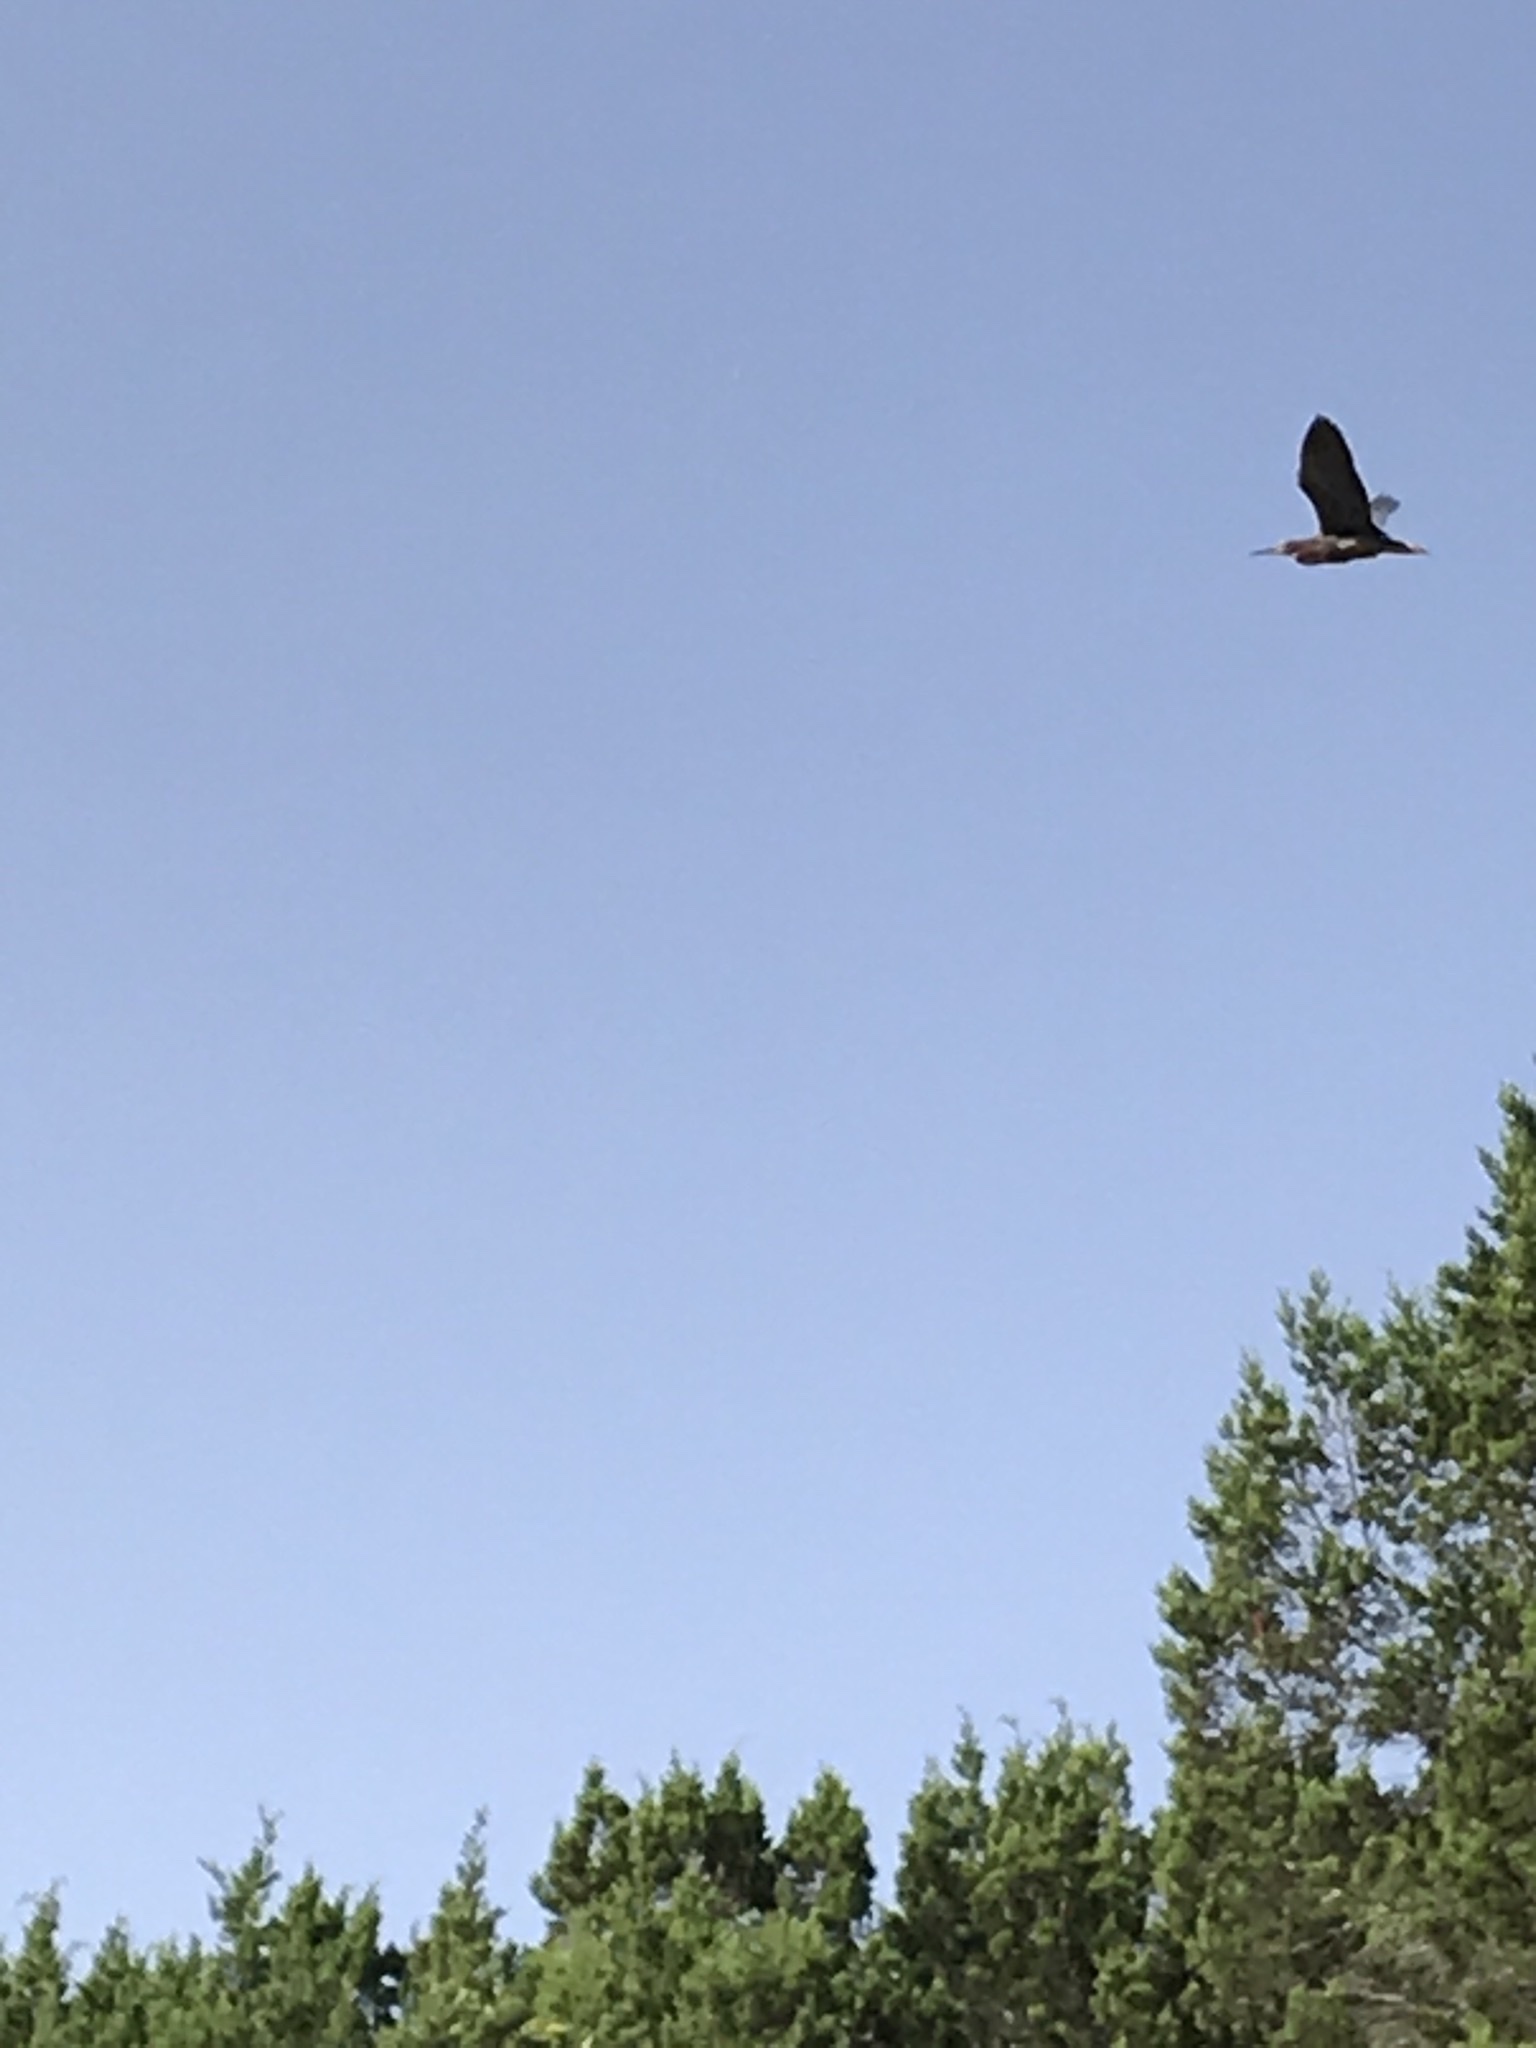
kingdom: Animalia
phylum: Chordata
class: Aves
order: Pelecaniformes
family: Ardeidae
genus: Butorides
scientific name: Butorides virescens
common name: Green heron
